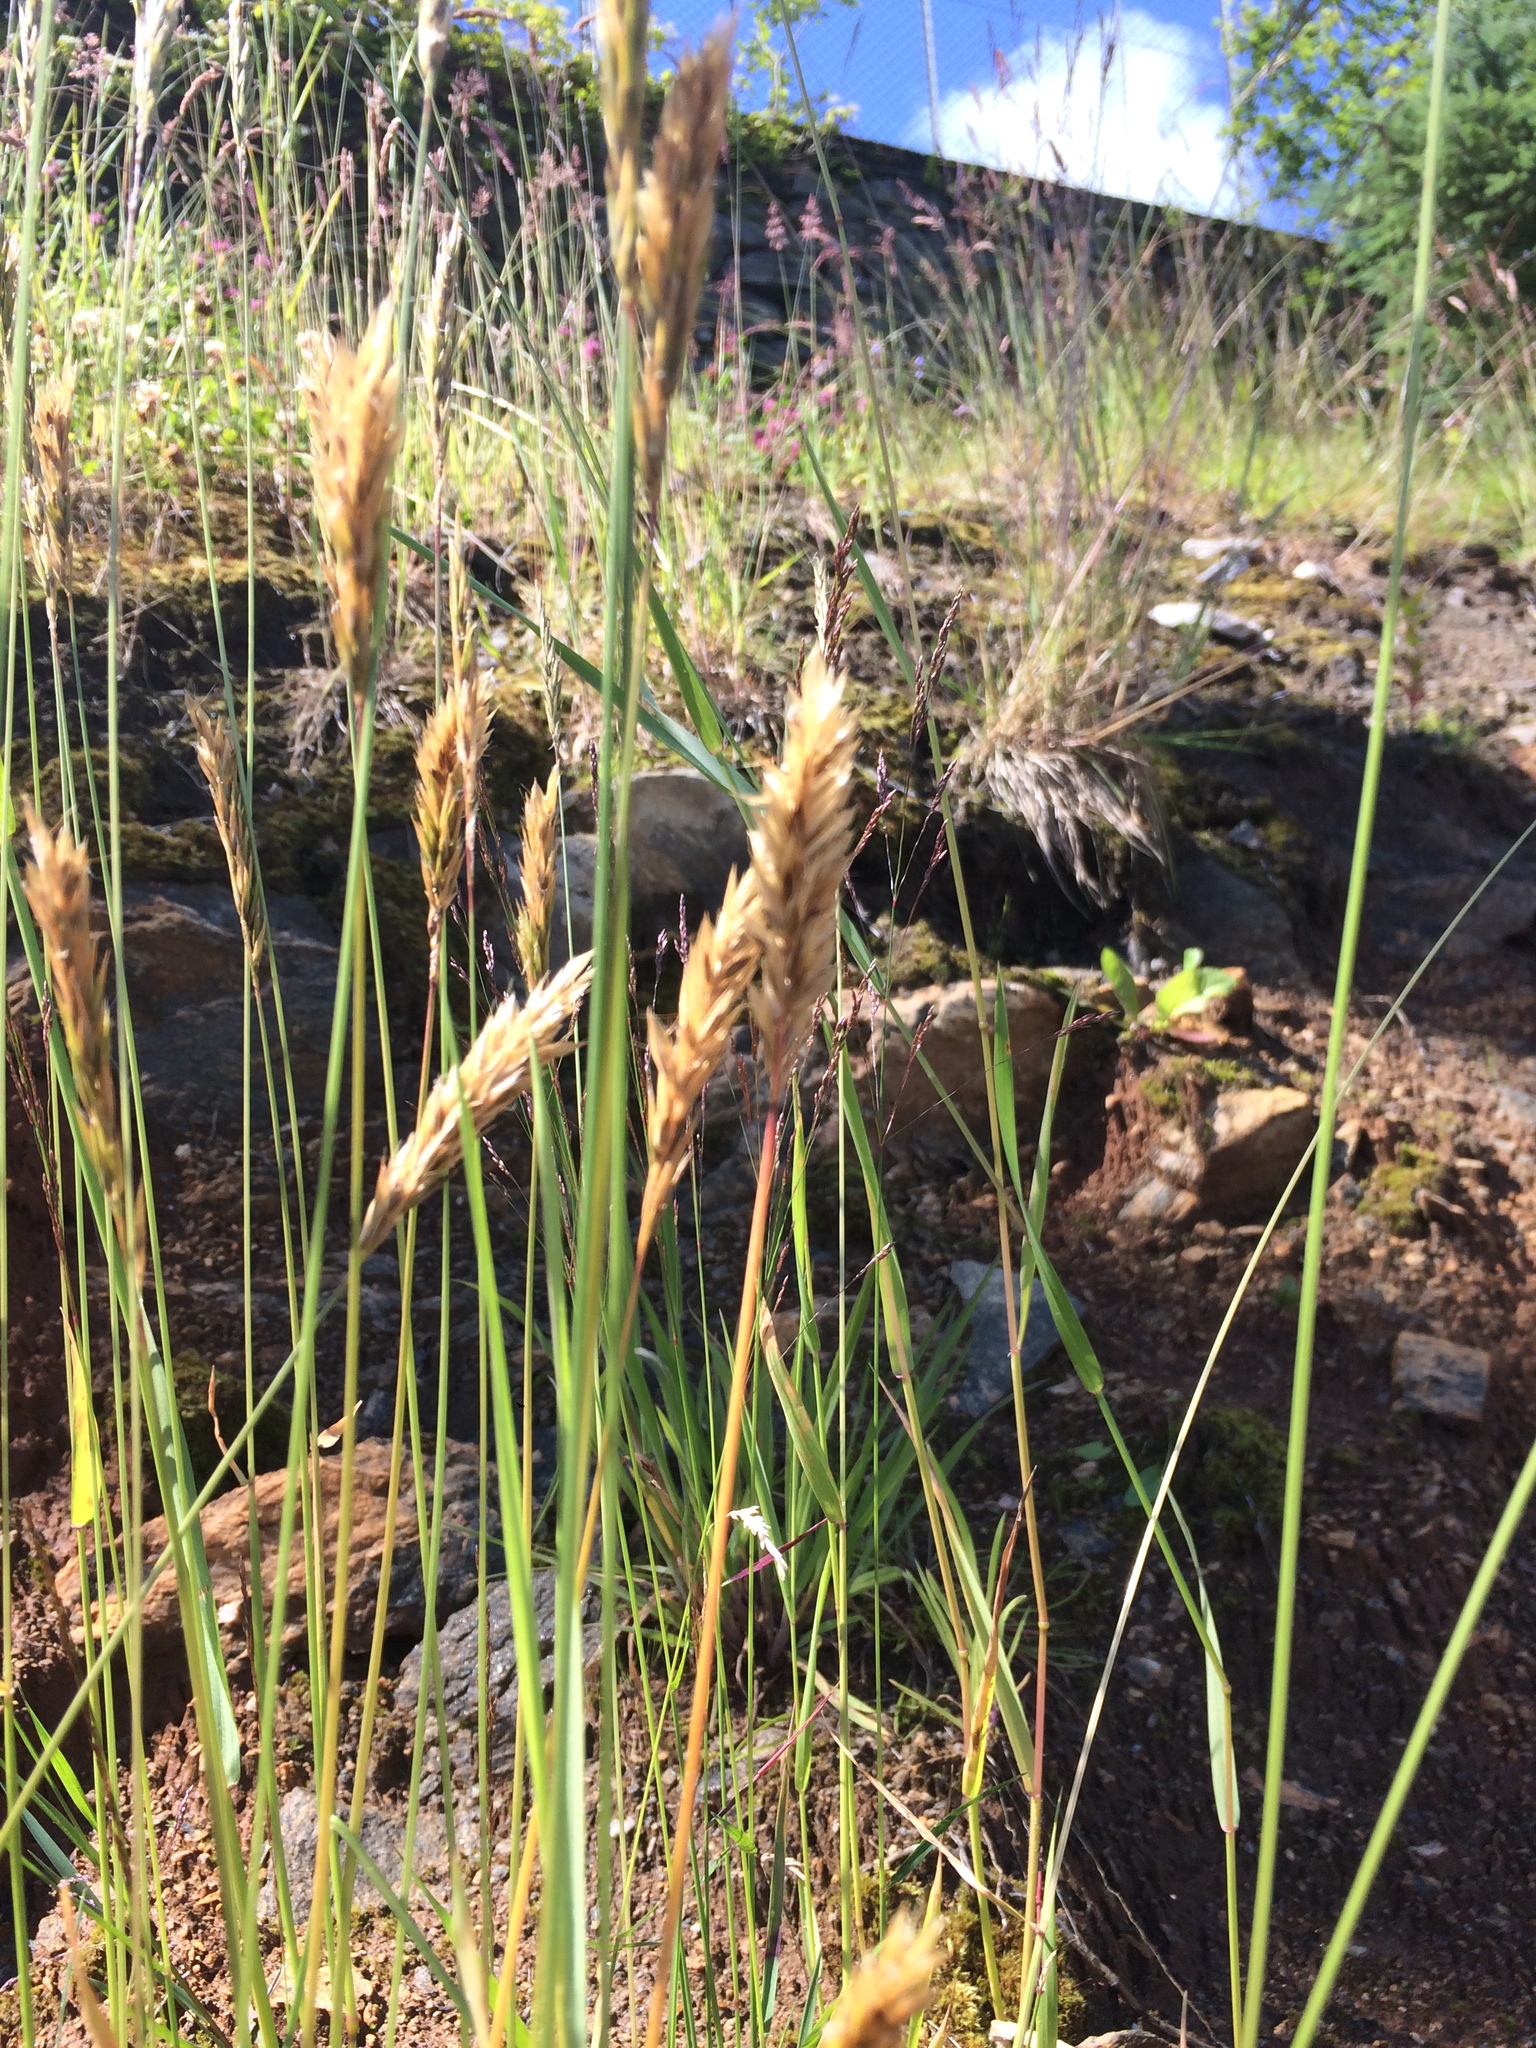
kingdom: Plantae
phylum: Tracheophyta
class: Liliopsida
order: Poales
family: Poaceae
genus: Anthoxanthum
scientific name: Anthoxanthum odoratum
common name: Sweet vernalgrass
